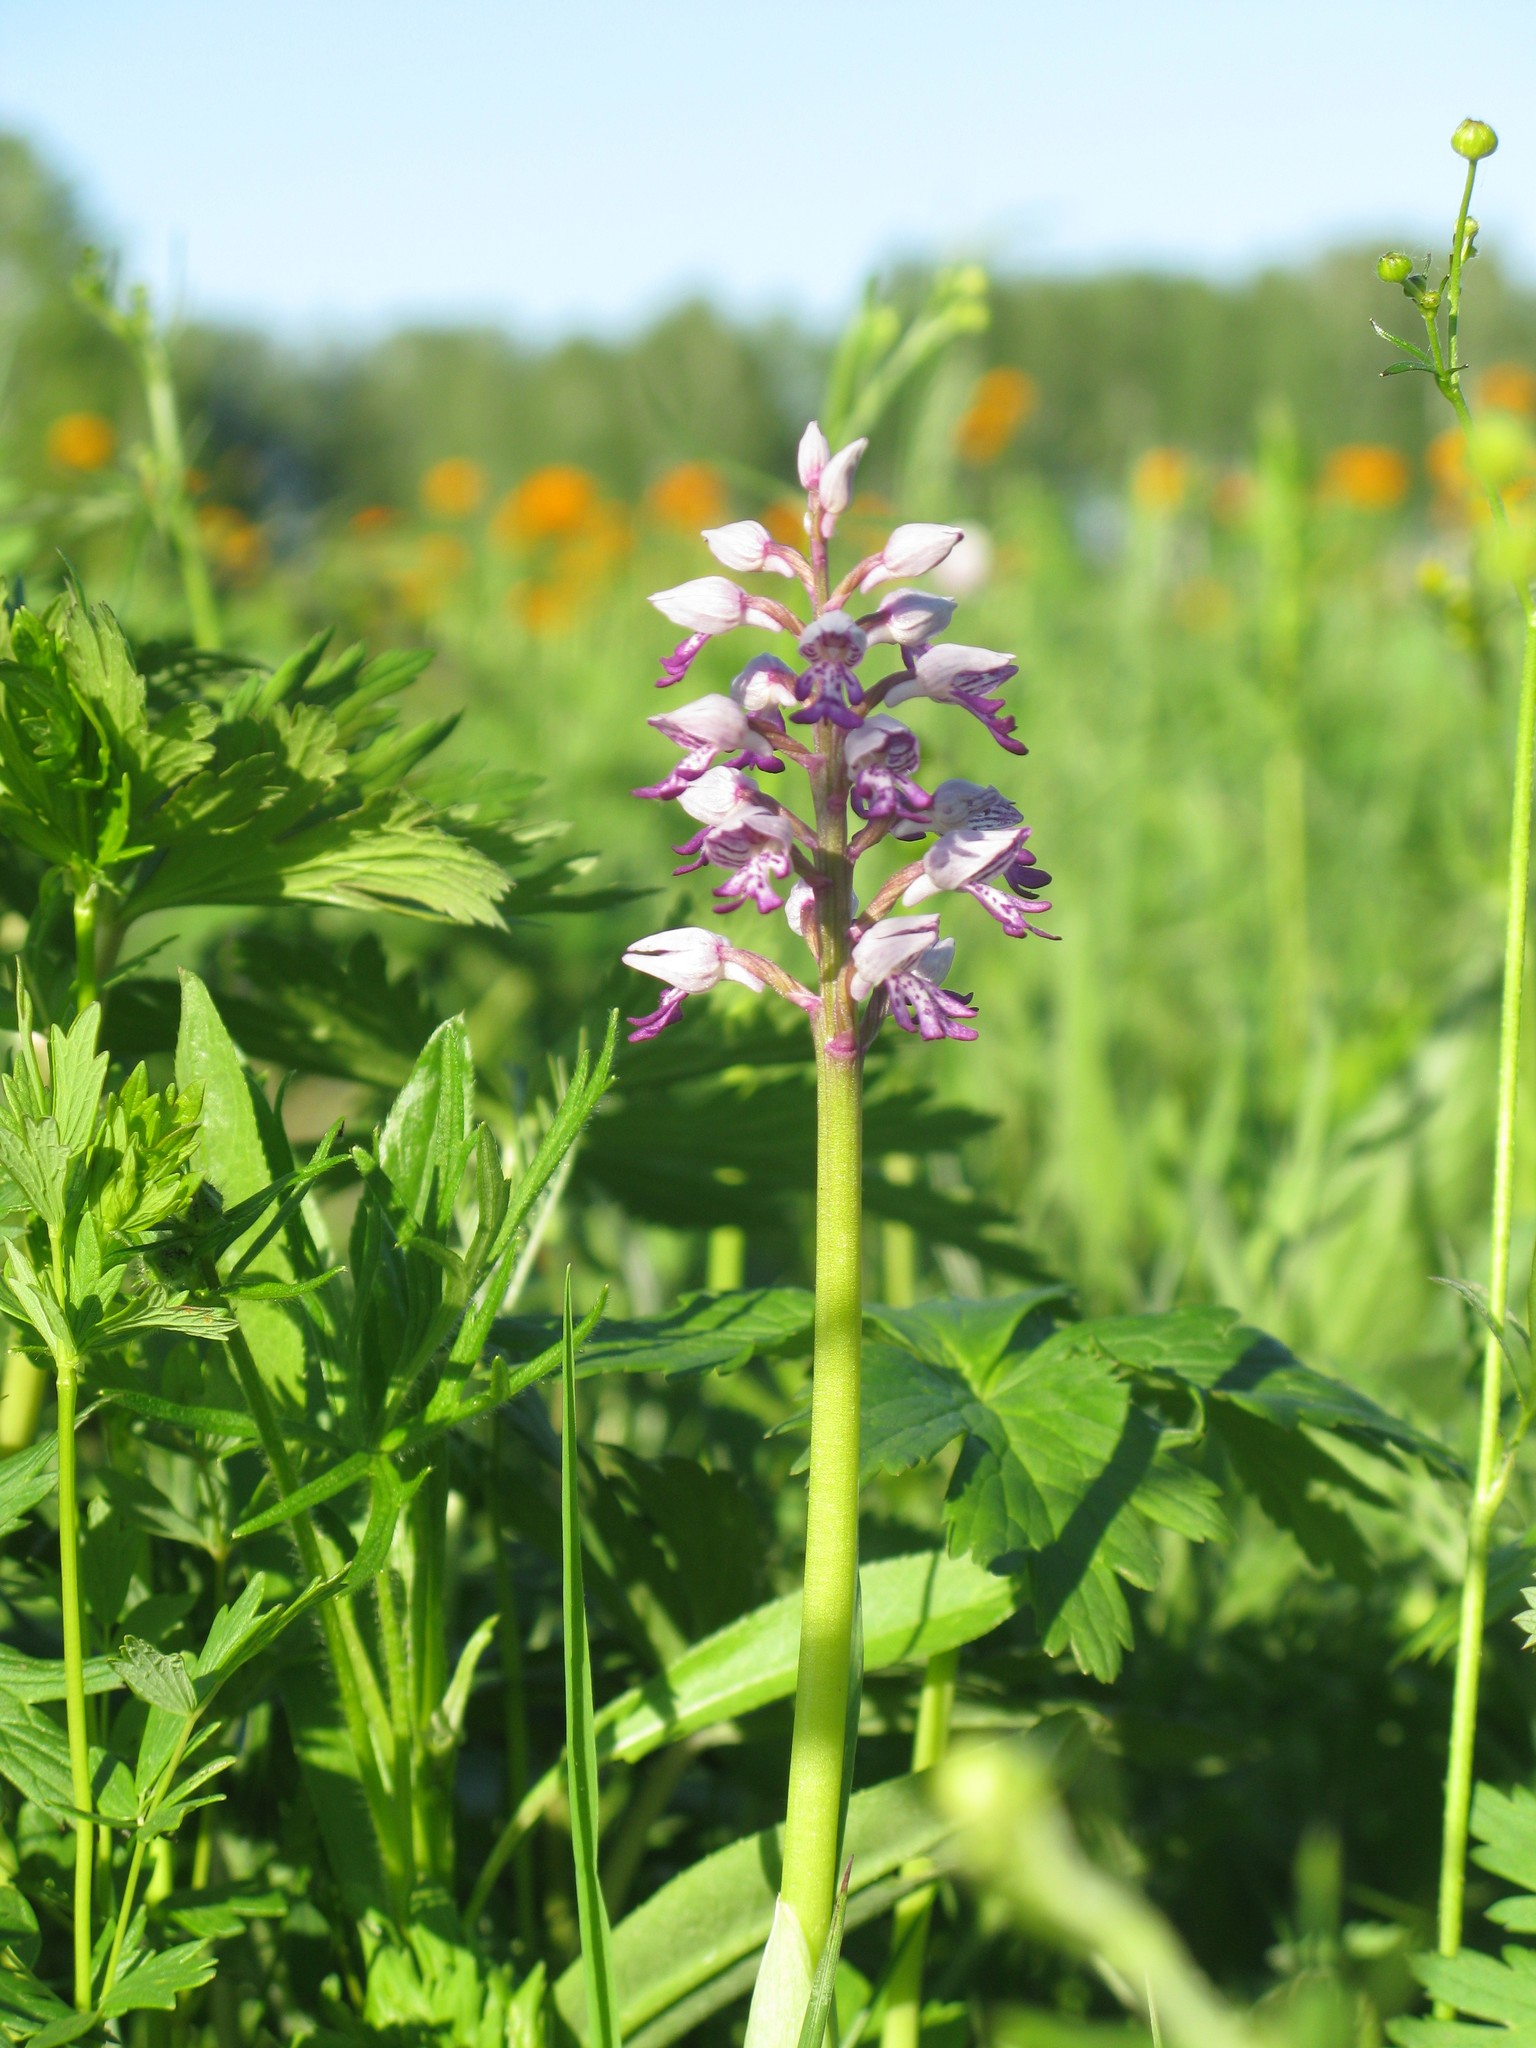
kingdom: Plantae
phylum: Tracheophyta
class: Liliopsida
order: Asparagales
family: Orchidaceae
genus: Orchis
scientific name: Orchis militaris
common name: Military orchid
